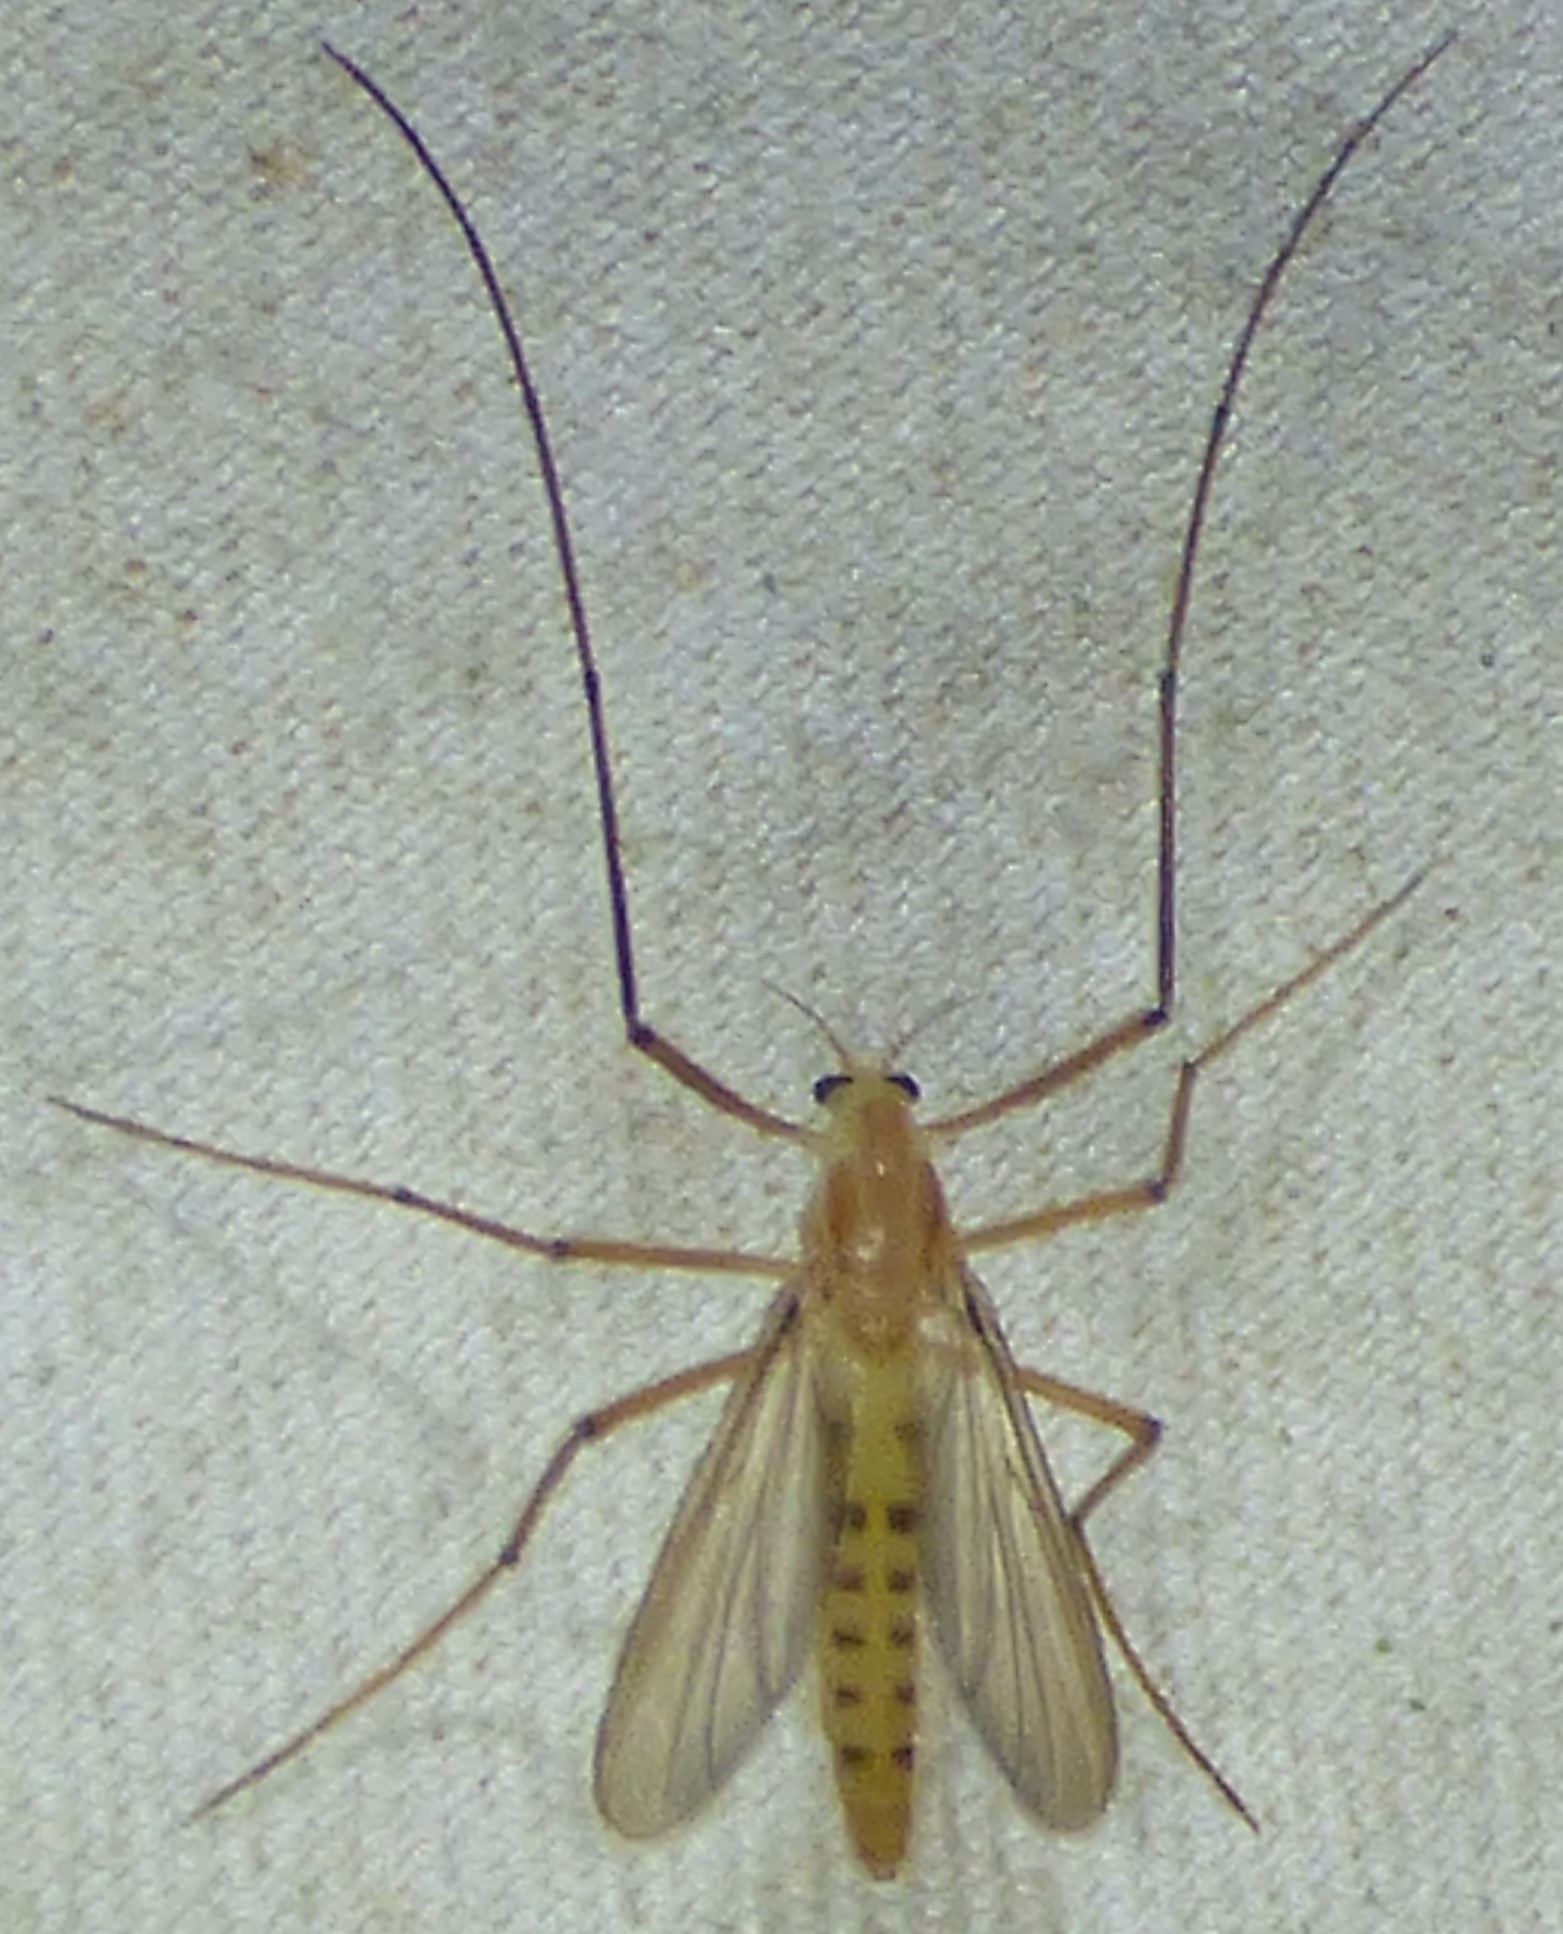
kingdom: Animalia
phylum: Arthropoda
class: Insecta
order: Diptera
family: Chironomidae
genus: Xylotopus
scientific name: Xylotopus par
